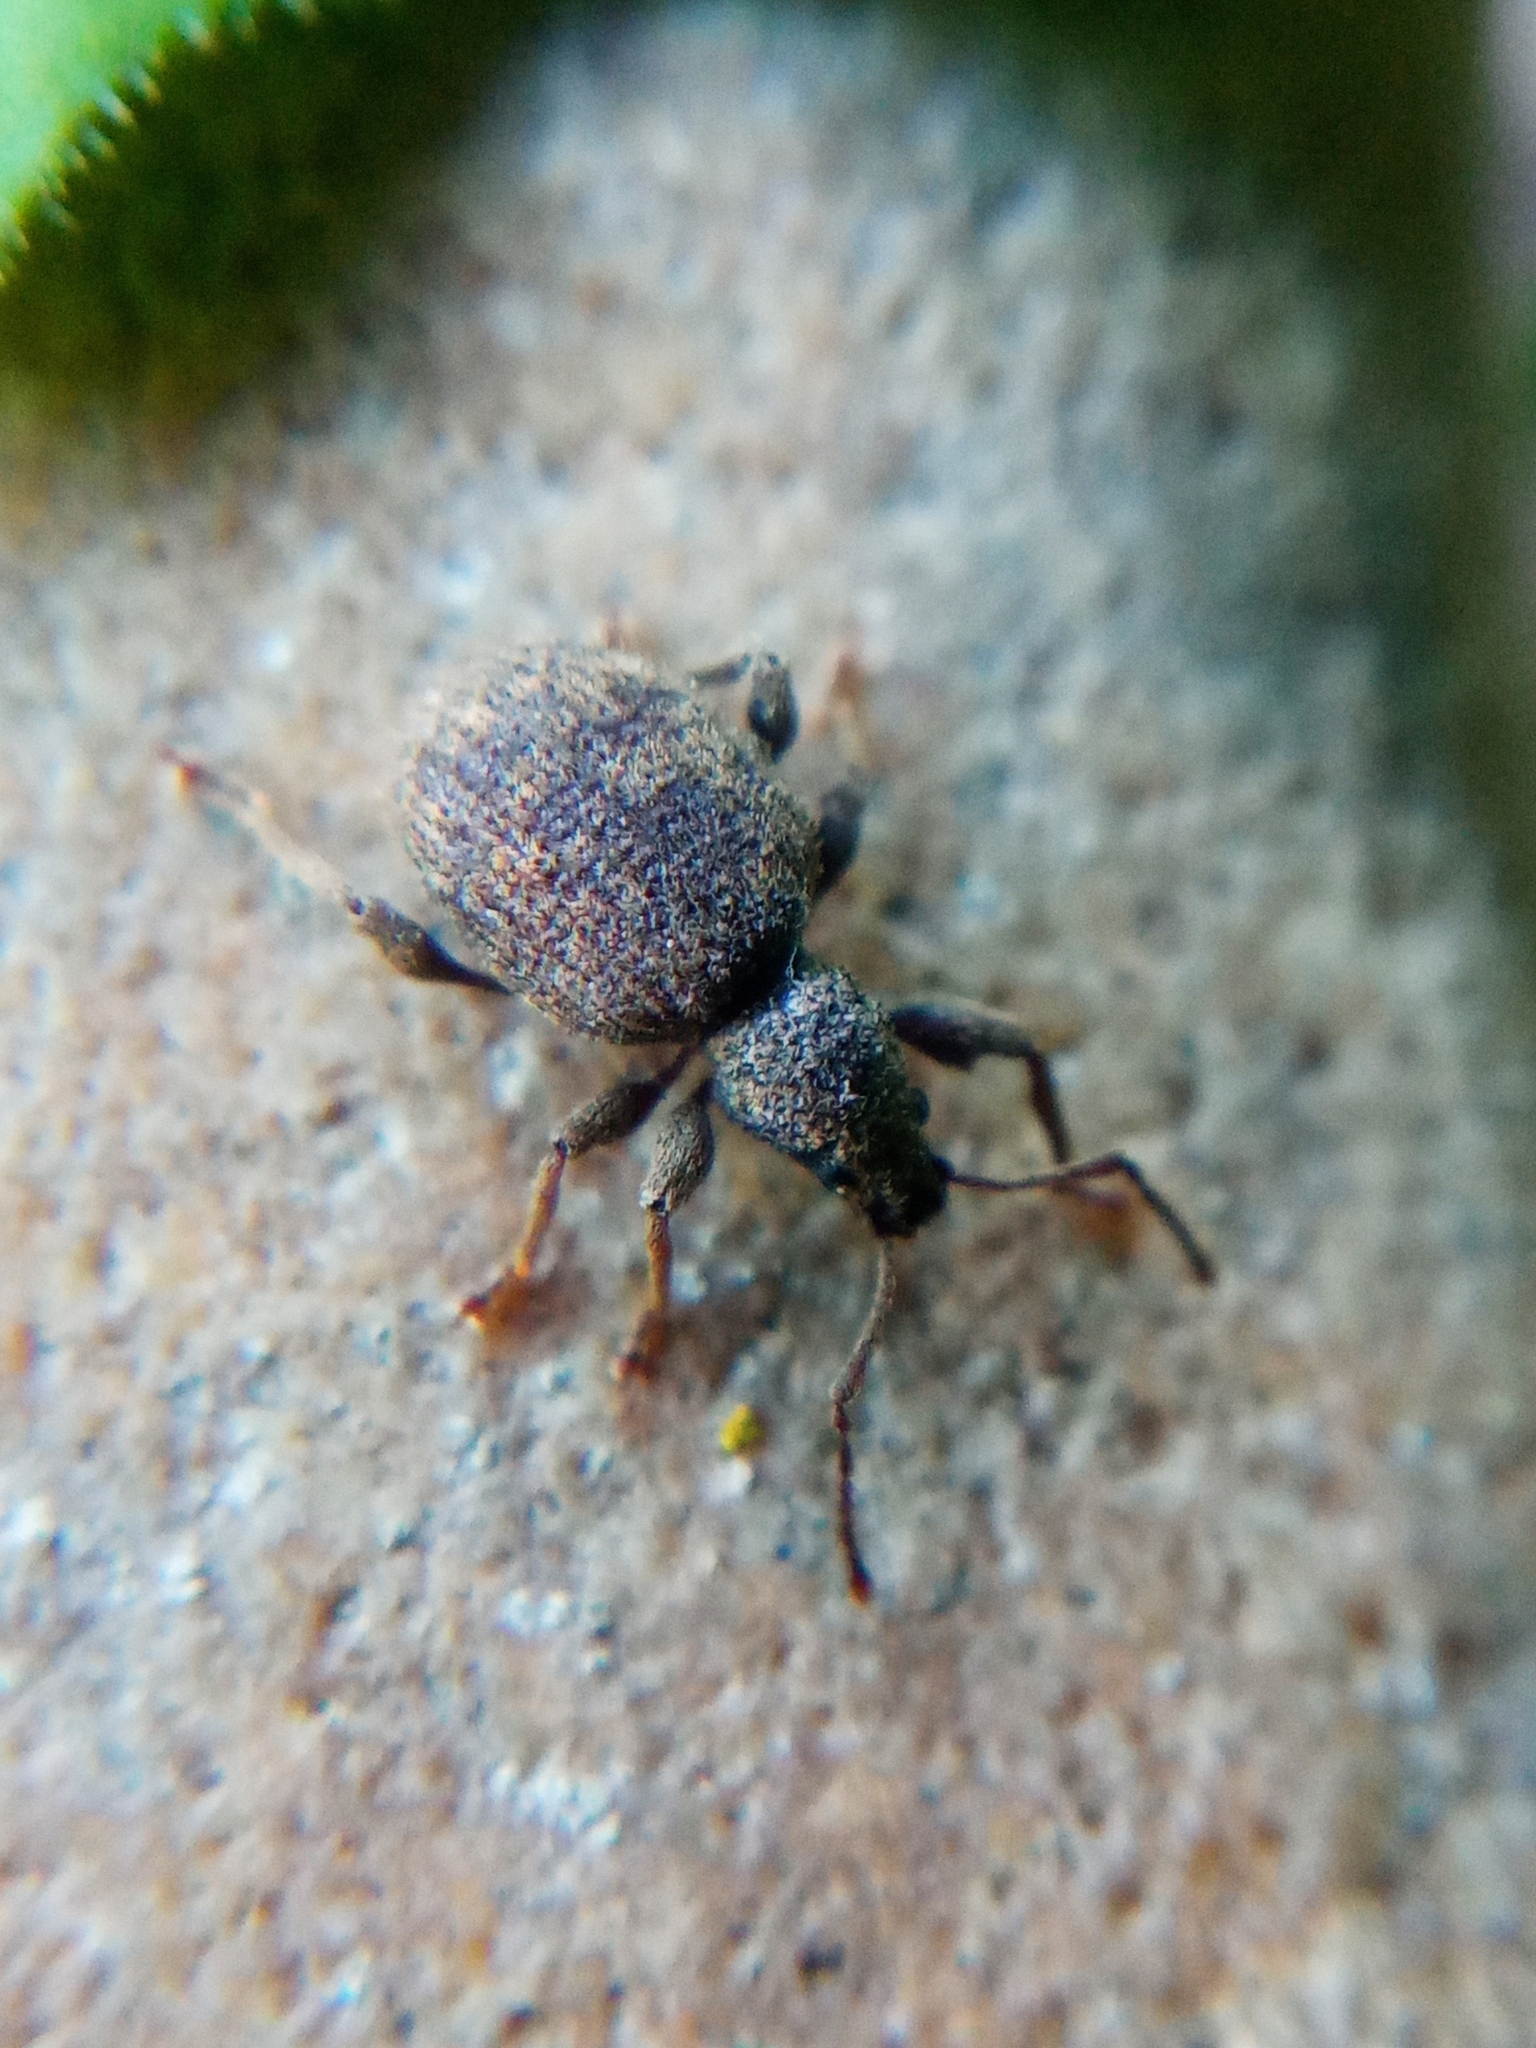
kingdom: Animalia
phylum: Arthropoda
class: Insecta
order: Coleoptera
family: Curculionidae
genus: Otiorhynchus
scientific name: Otiorhynchus crataegi
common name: Privet weevil
